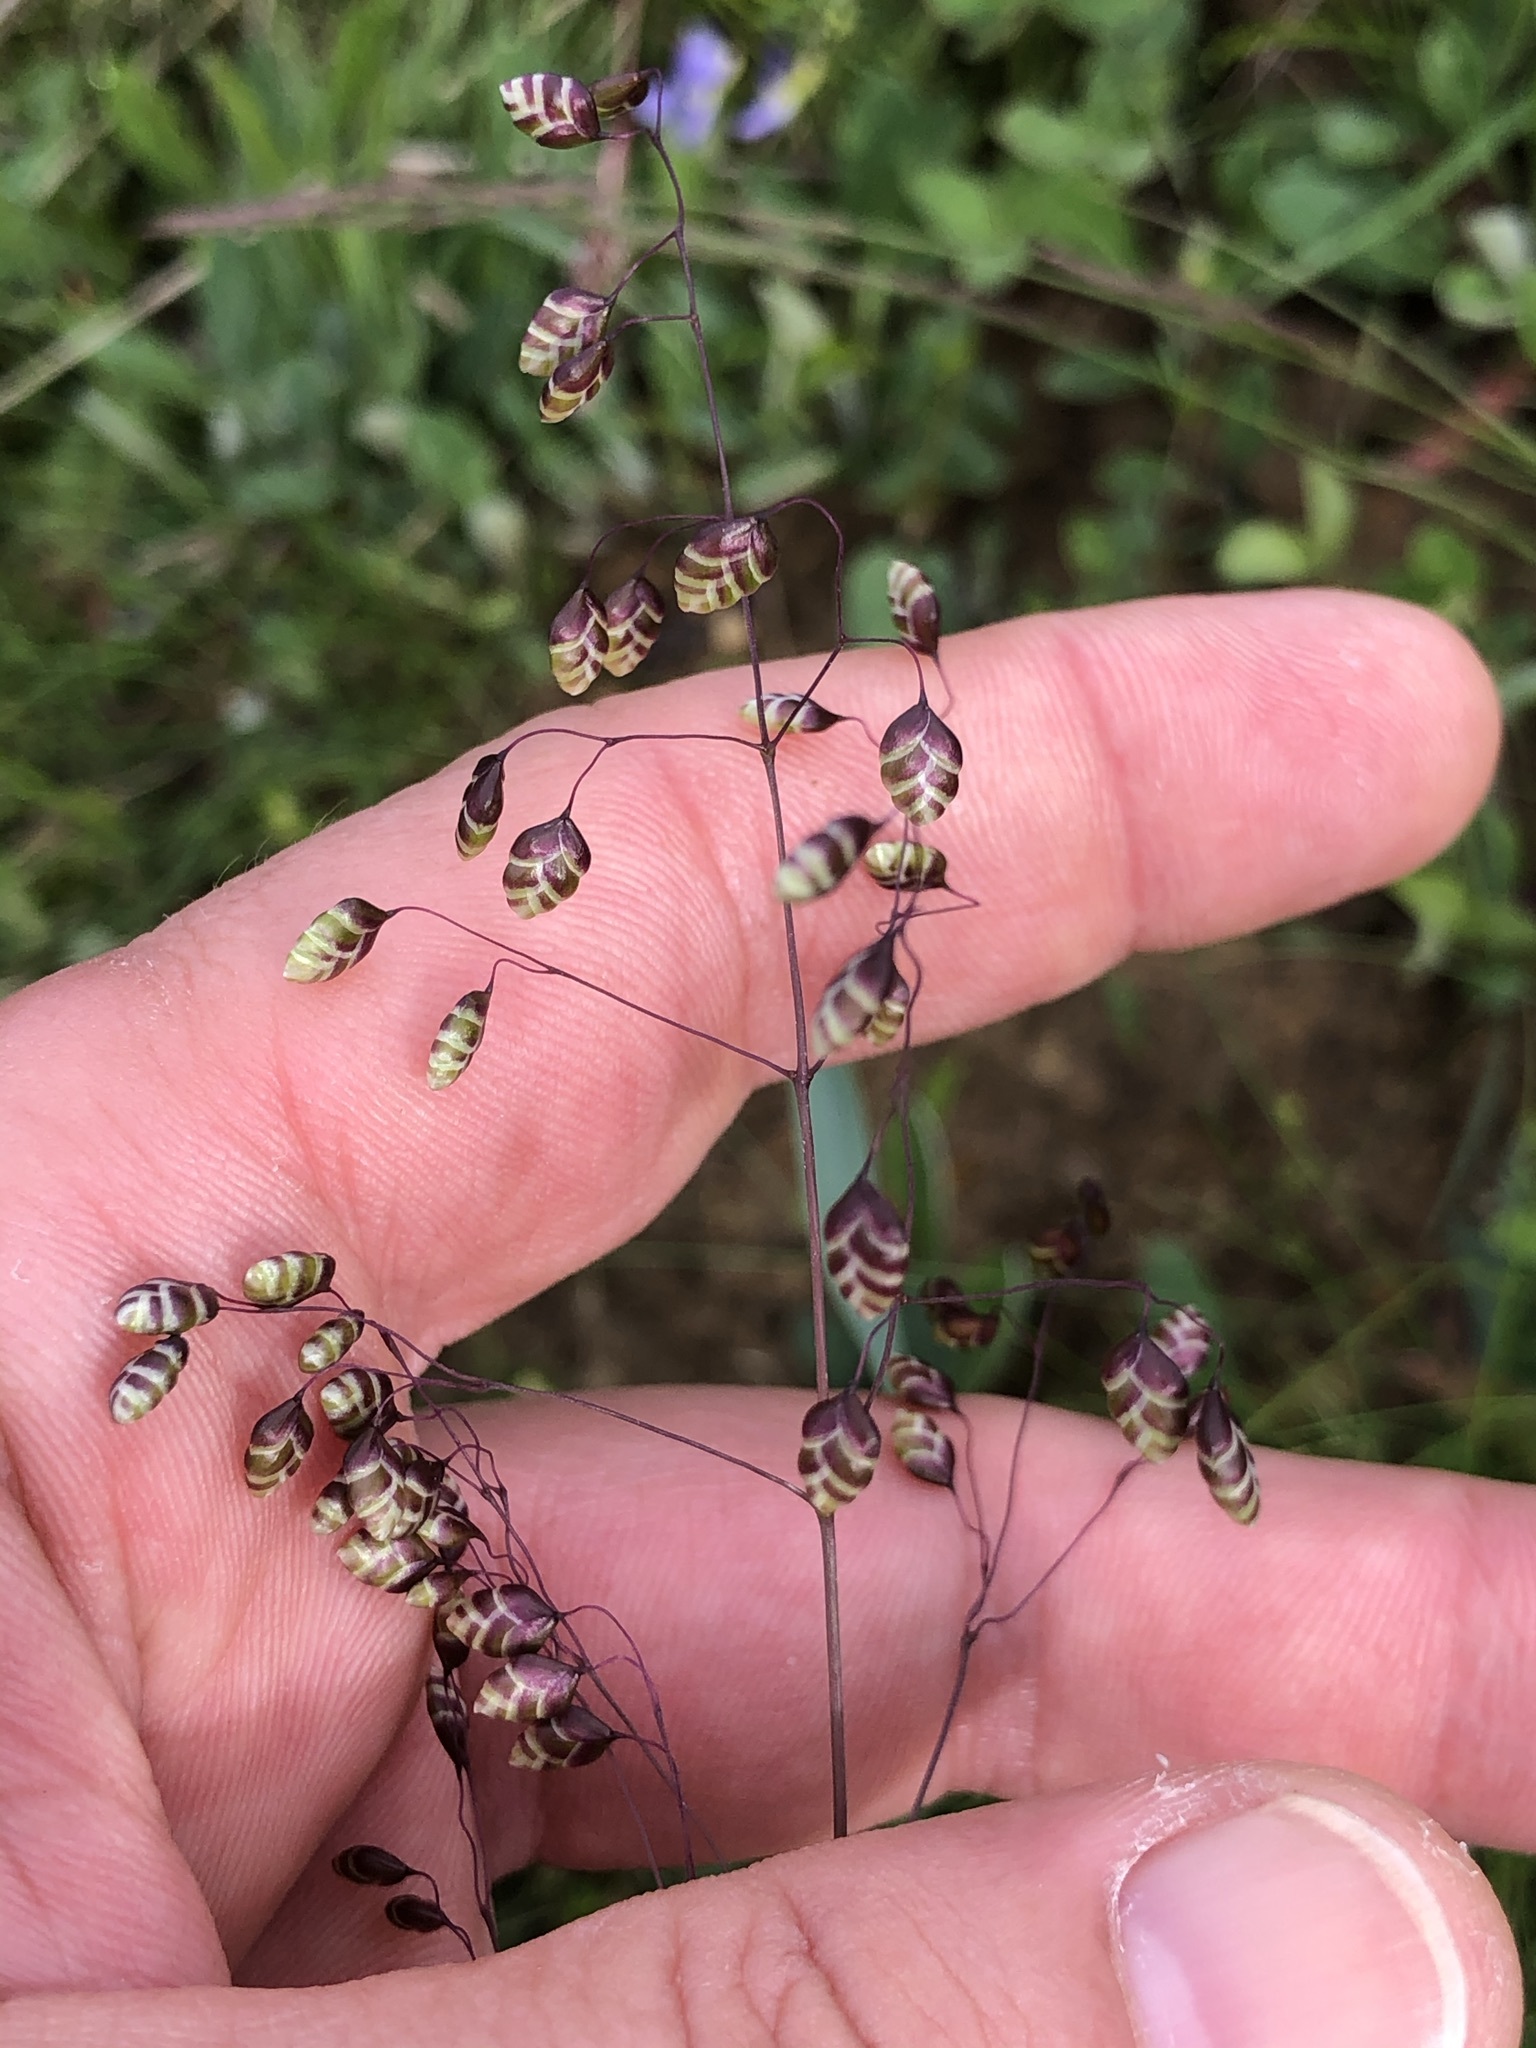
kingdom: Plantae
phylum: Tracheophyta
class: Liliopsida
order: Poales
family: Poaceae
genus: Briza
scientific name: Briza media
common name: Quaking grass
